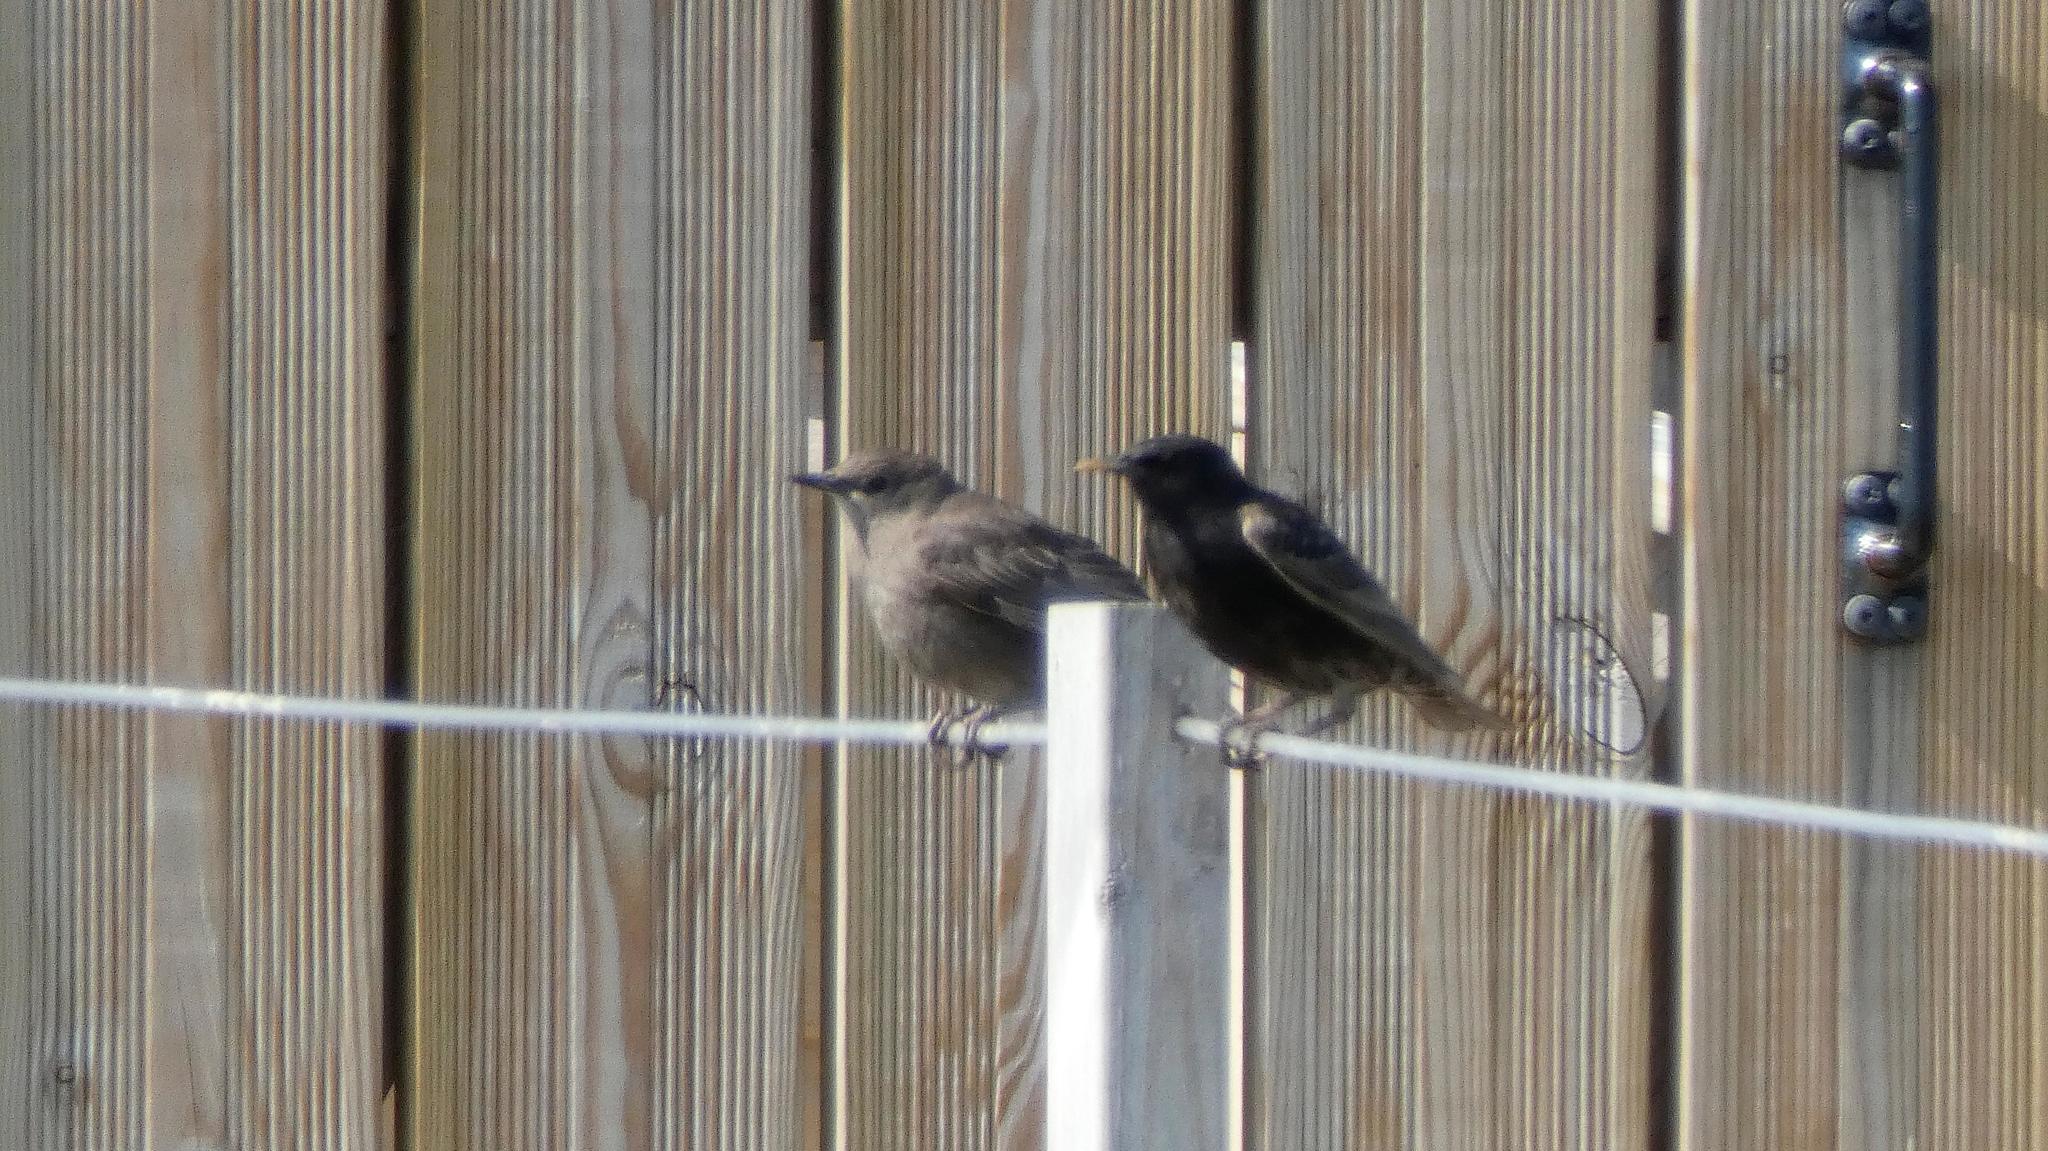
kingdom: Animalia
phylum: Chordata
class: Aves
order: Passeriformes
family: Sturnidae
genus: Sturnus
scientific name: Sturnus vulgaris
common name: Common starling
